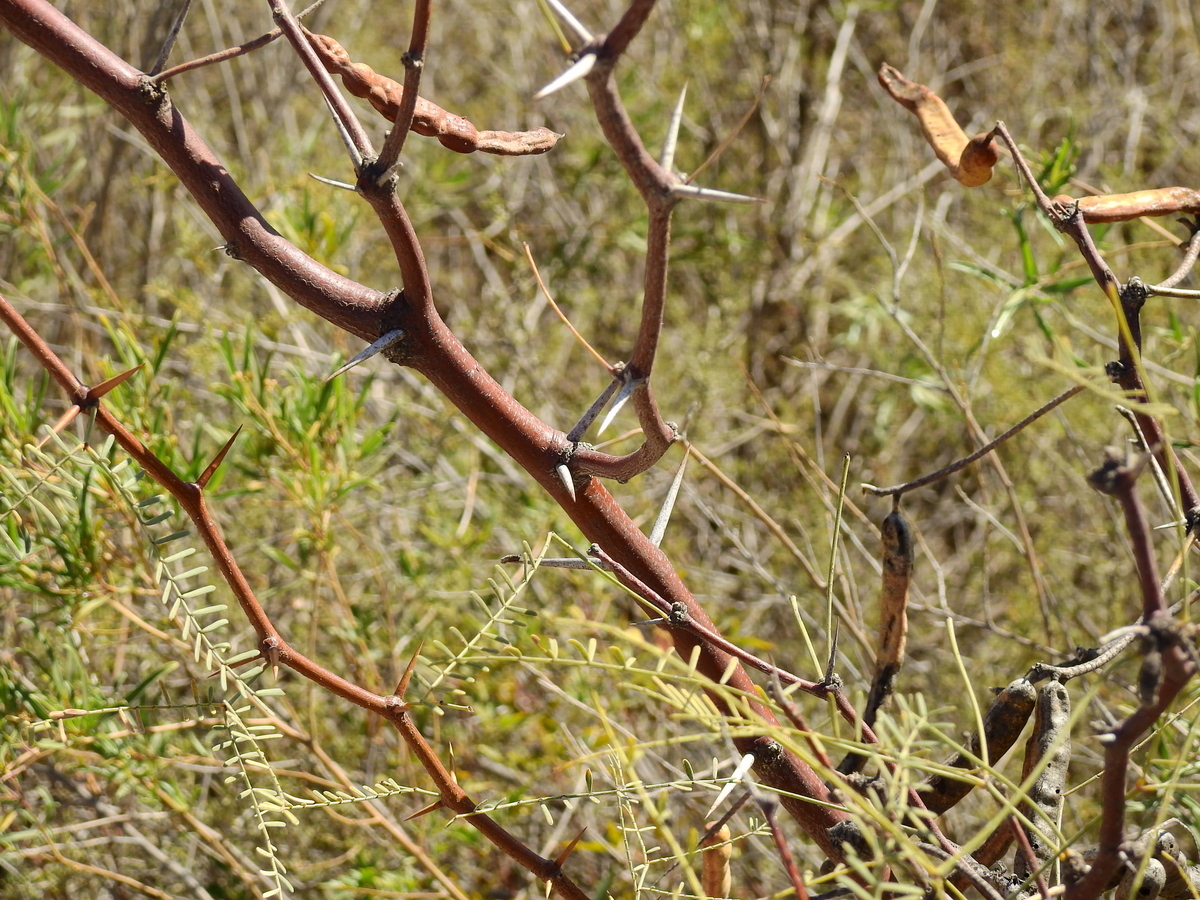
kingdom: Plantae
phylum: Tracheophyta
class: Magnoliopsida
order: Fabales
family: Fabaceae
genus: Prosopis
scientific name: Prosopis alpataco
